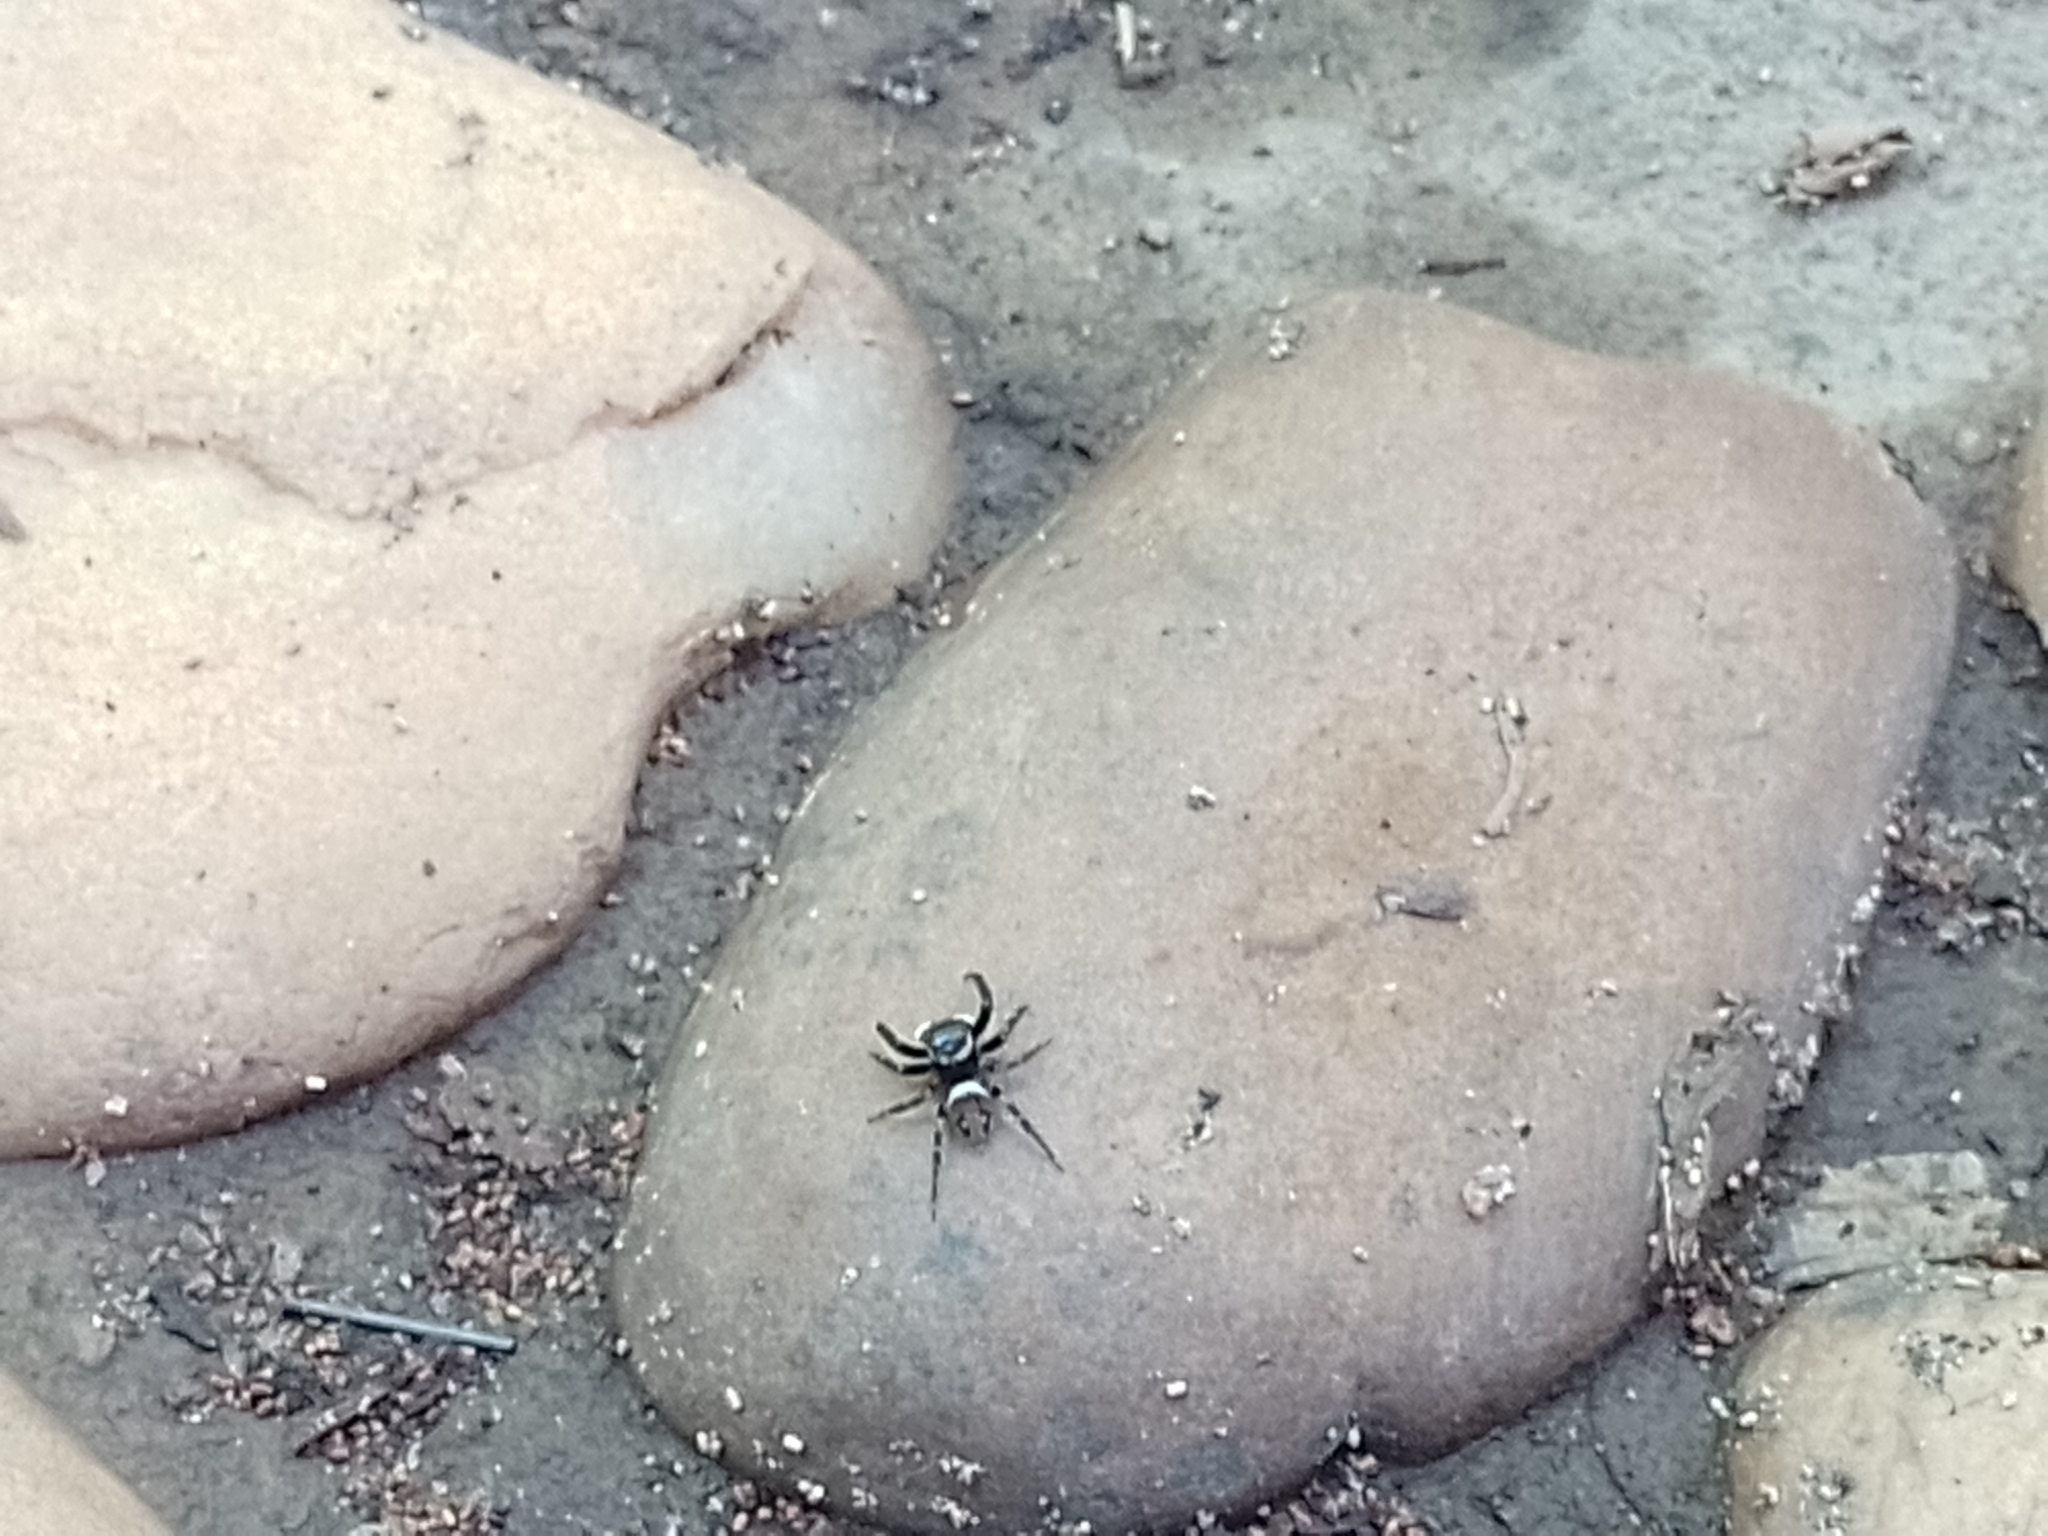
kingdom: Animalia
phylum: Arthropoda
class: Arachnida
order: Araneae
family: Salticidae
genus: Hasarius
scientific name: Hasarius adansoni
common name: Jumping spider
